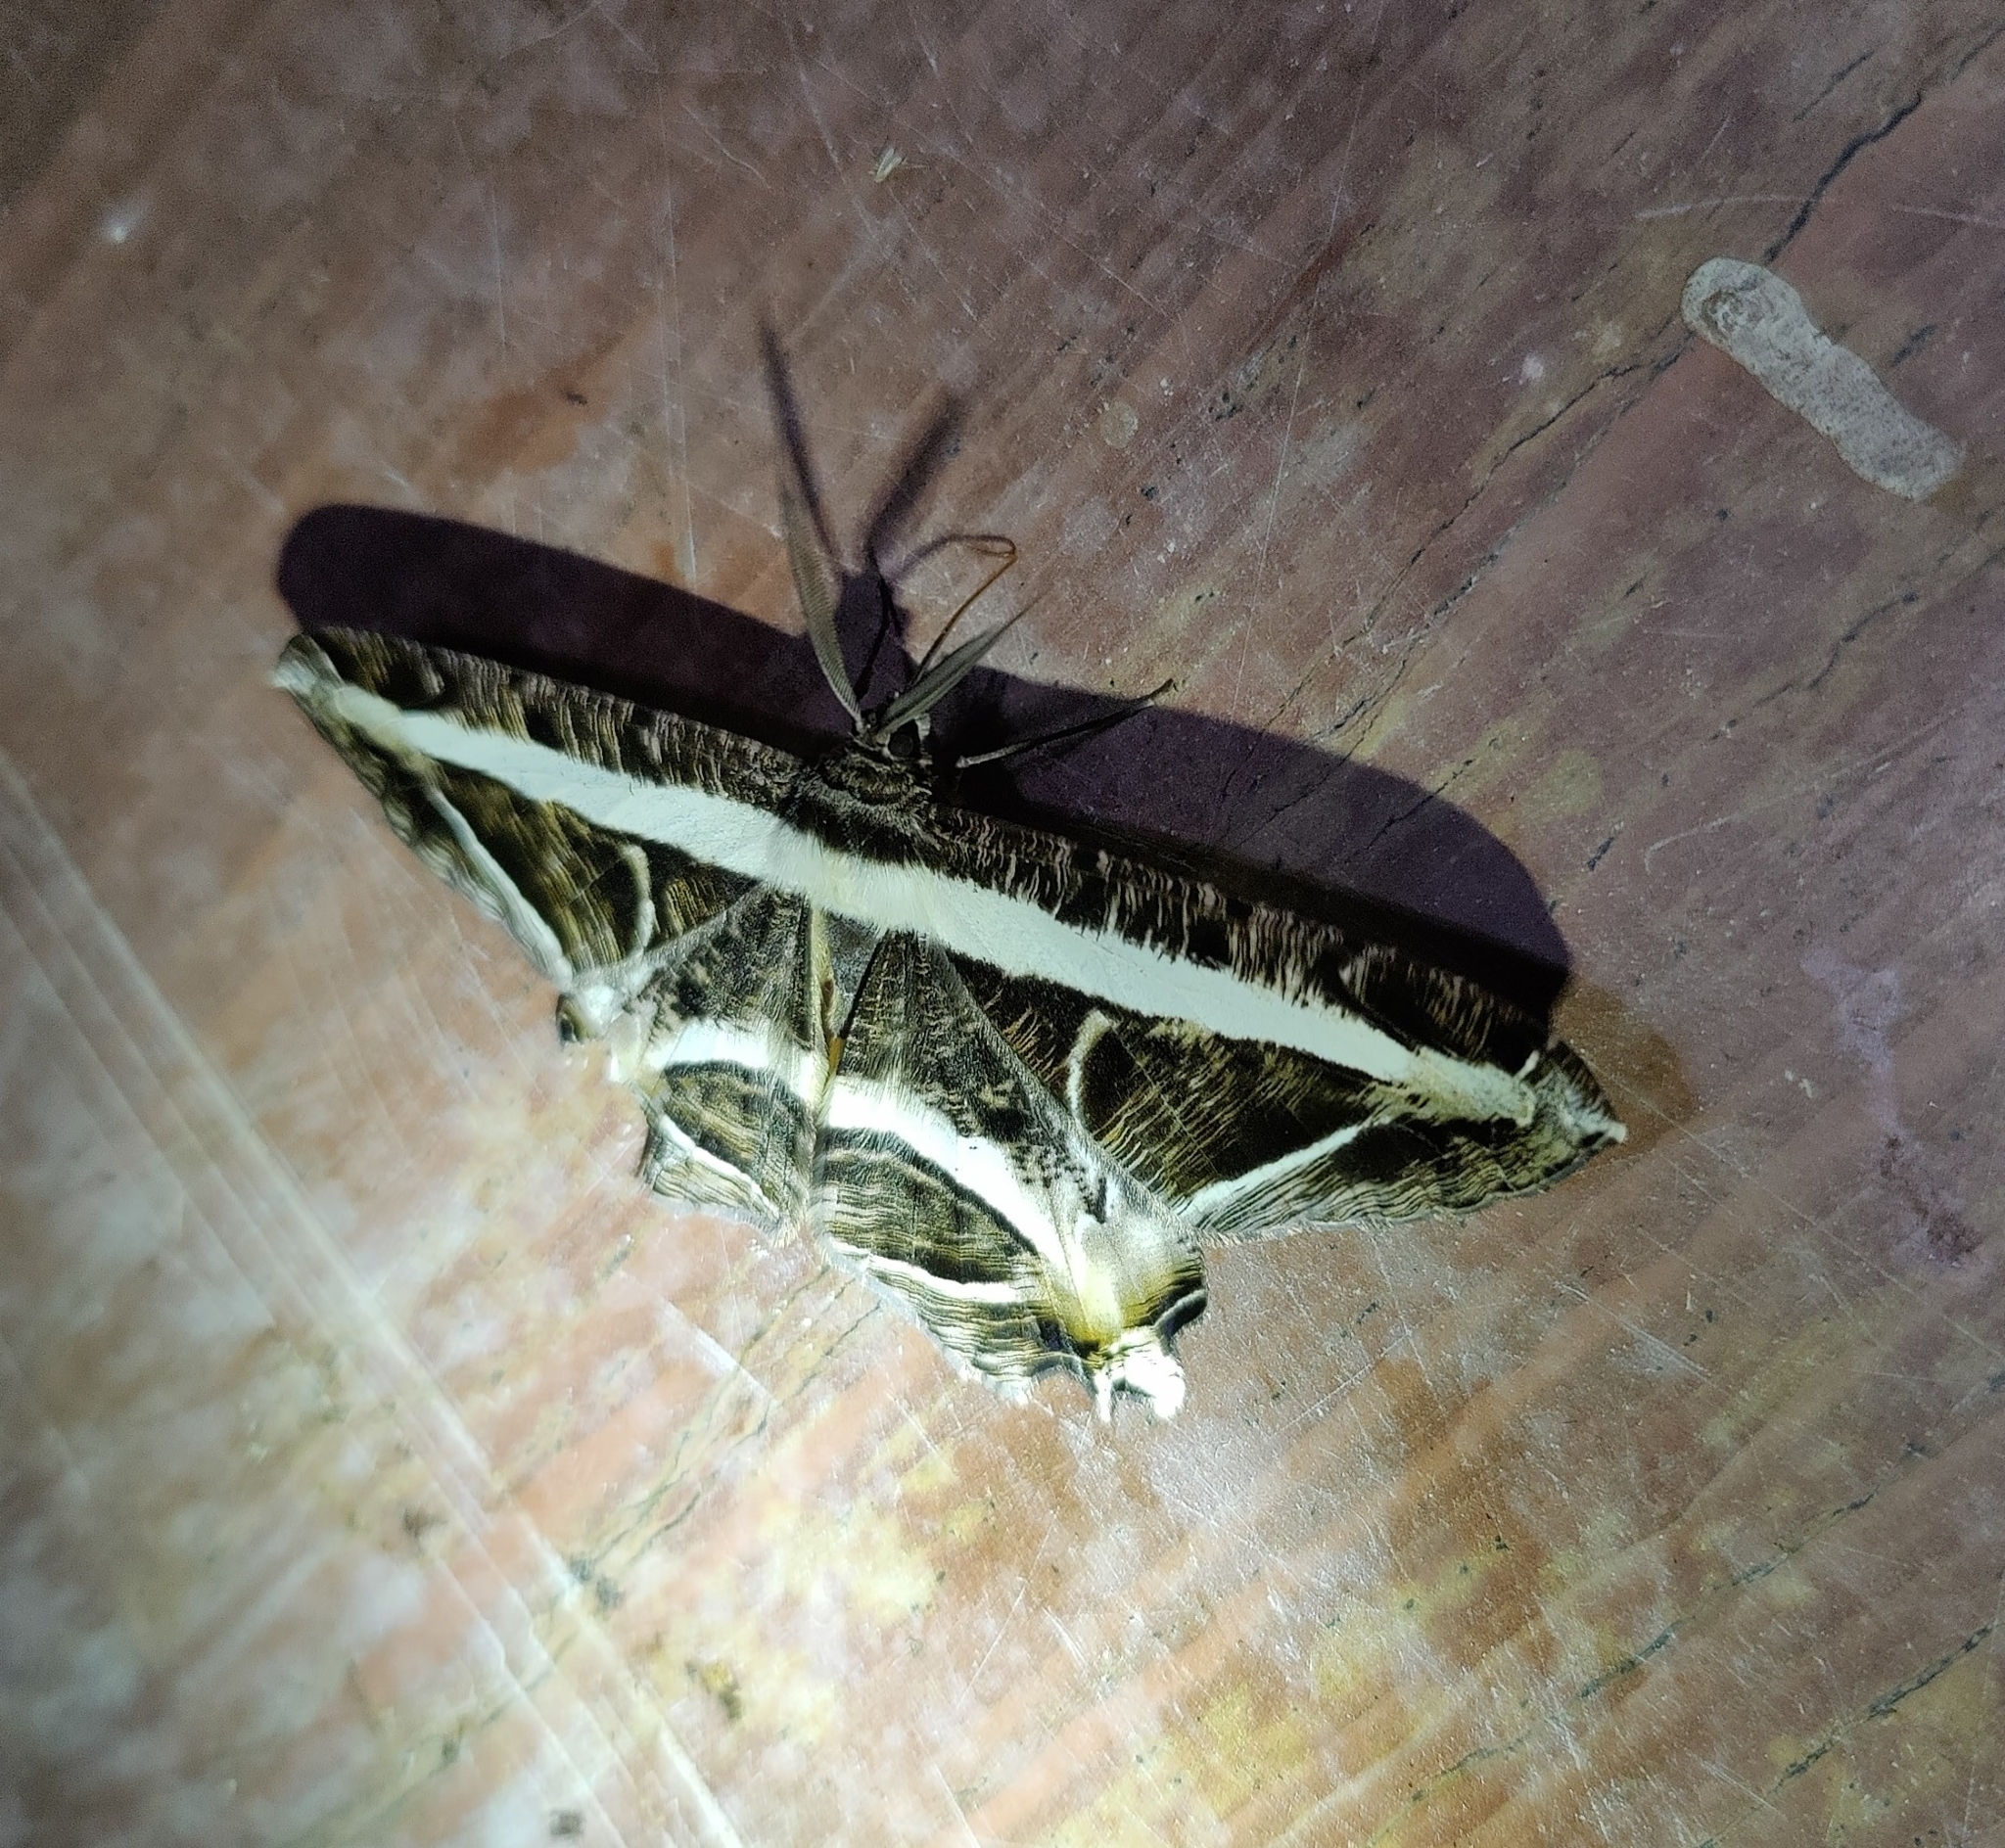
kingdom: Animalia
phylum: Arthropoda
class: Insecta
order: Lepidoptera
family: Geometridae
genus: Chorodna
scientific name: Chorodna fulgurita
